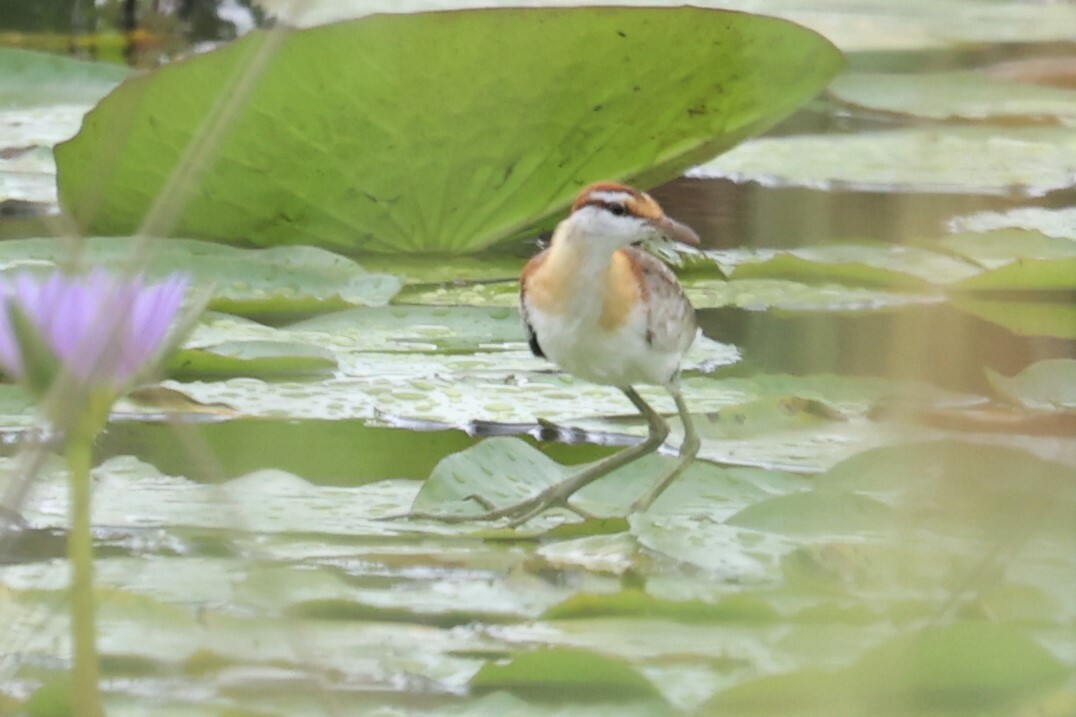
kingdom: Animalia
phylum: Chordata
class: Aves
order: Charadriiformes
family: Jacanidae
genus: Microparra
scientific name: Microparra capensis
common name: Lesser jacana
